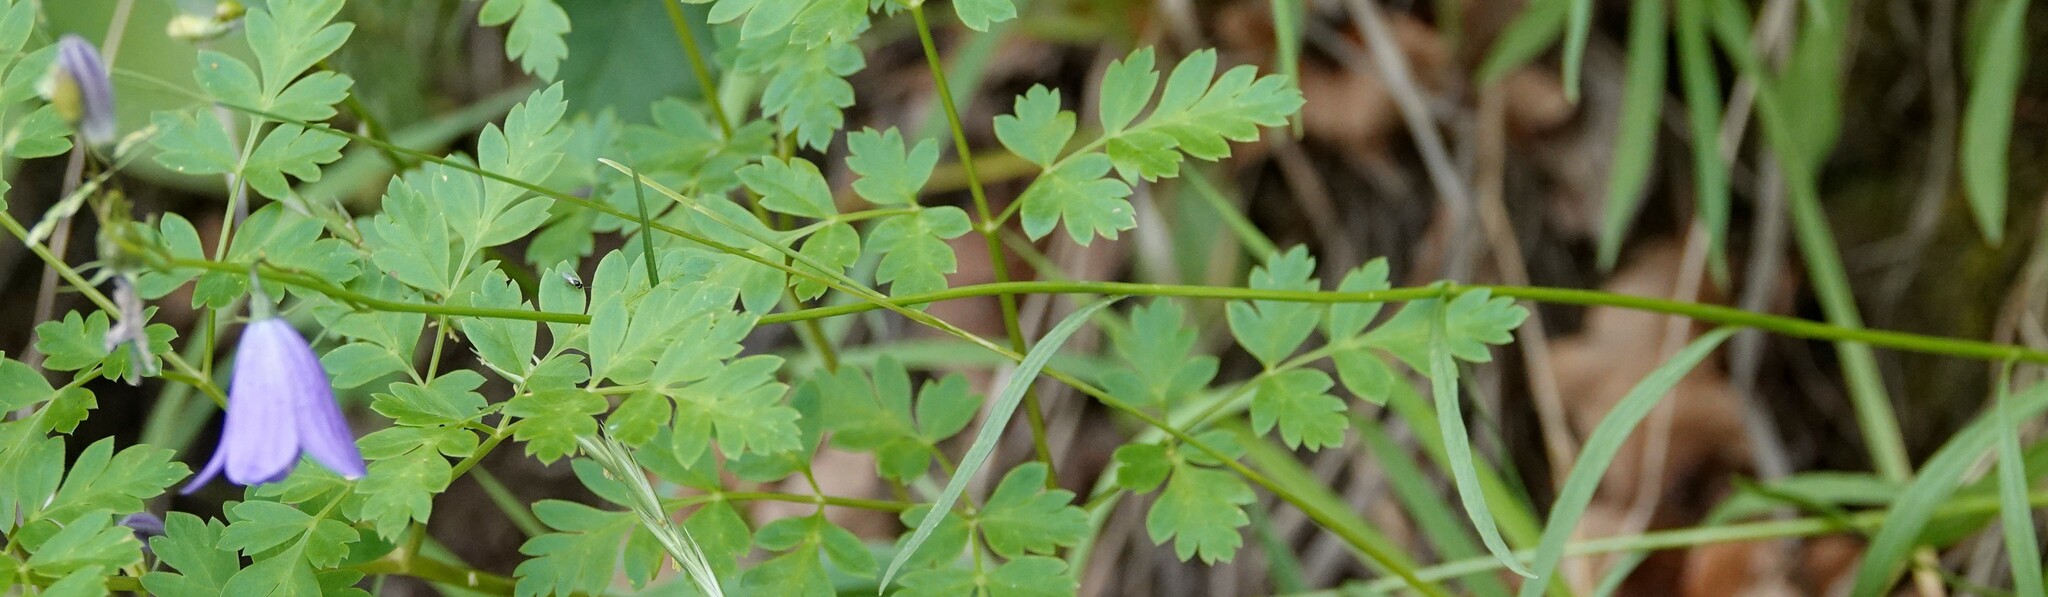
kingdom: Plantae
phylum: Tracheophyta
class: Magnoliopsida
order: Asterales
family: Campanulaceae
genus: Campanula
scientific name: Campanula petiolata
